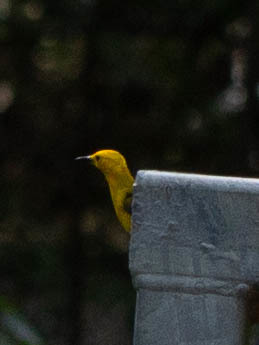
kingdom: Animalia
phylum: Chordata
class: Aves
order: Passeriformes
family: Parulidae
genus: Protonotaria
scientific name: Protonotaria citrea
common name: Prothonotary warbler
